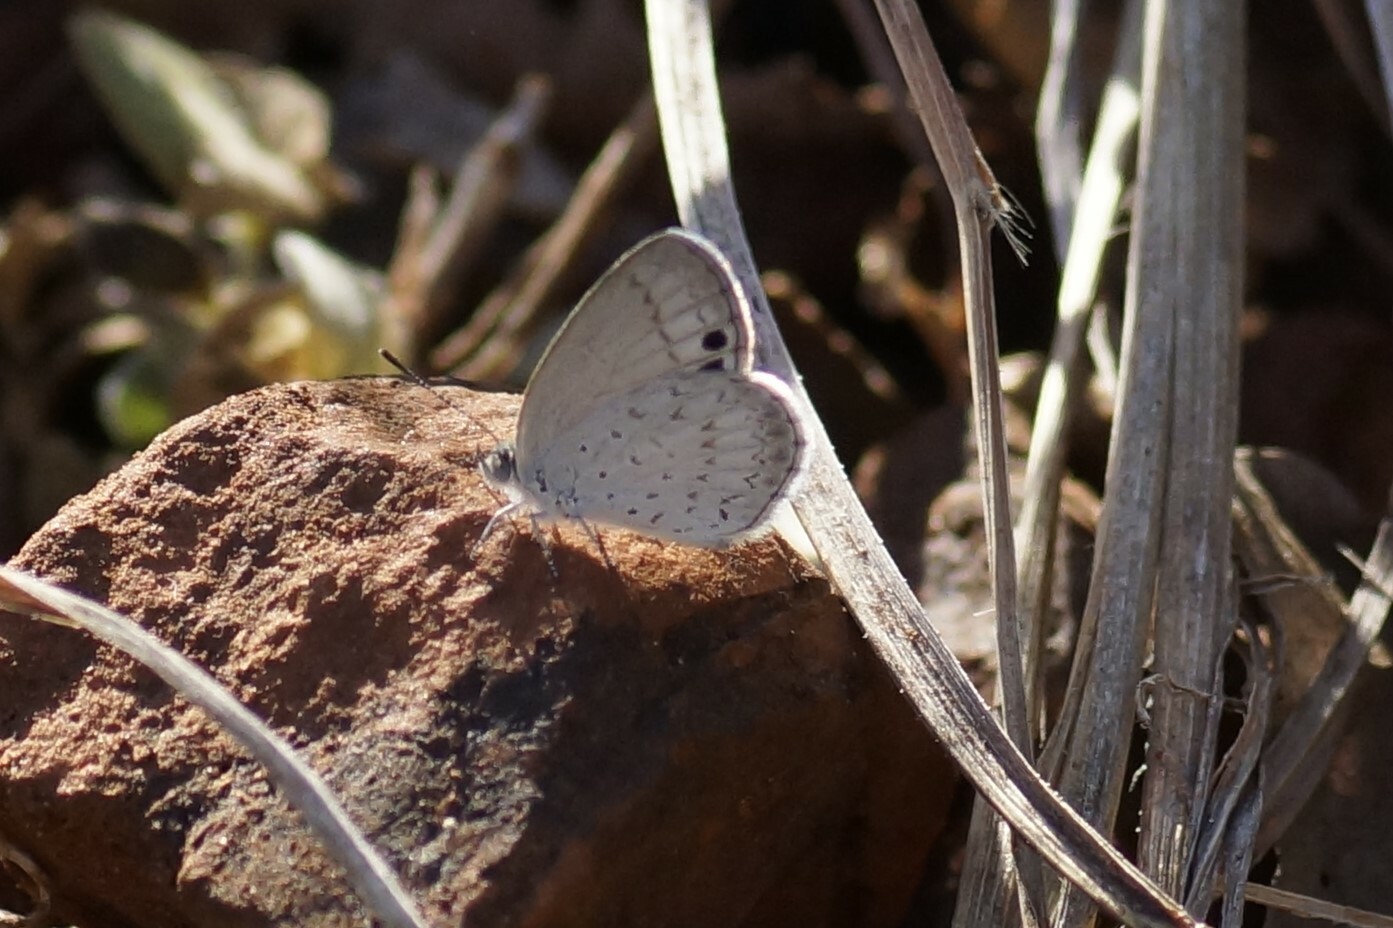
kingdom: Animalia
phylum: Arthropoda
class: Insecta
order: Lepidoptera
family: Lycaenidae
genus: Candalides
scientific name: Candalides
